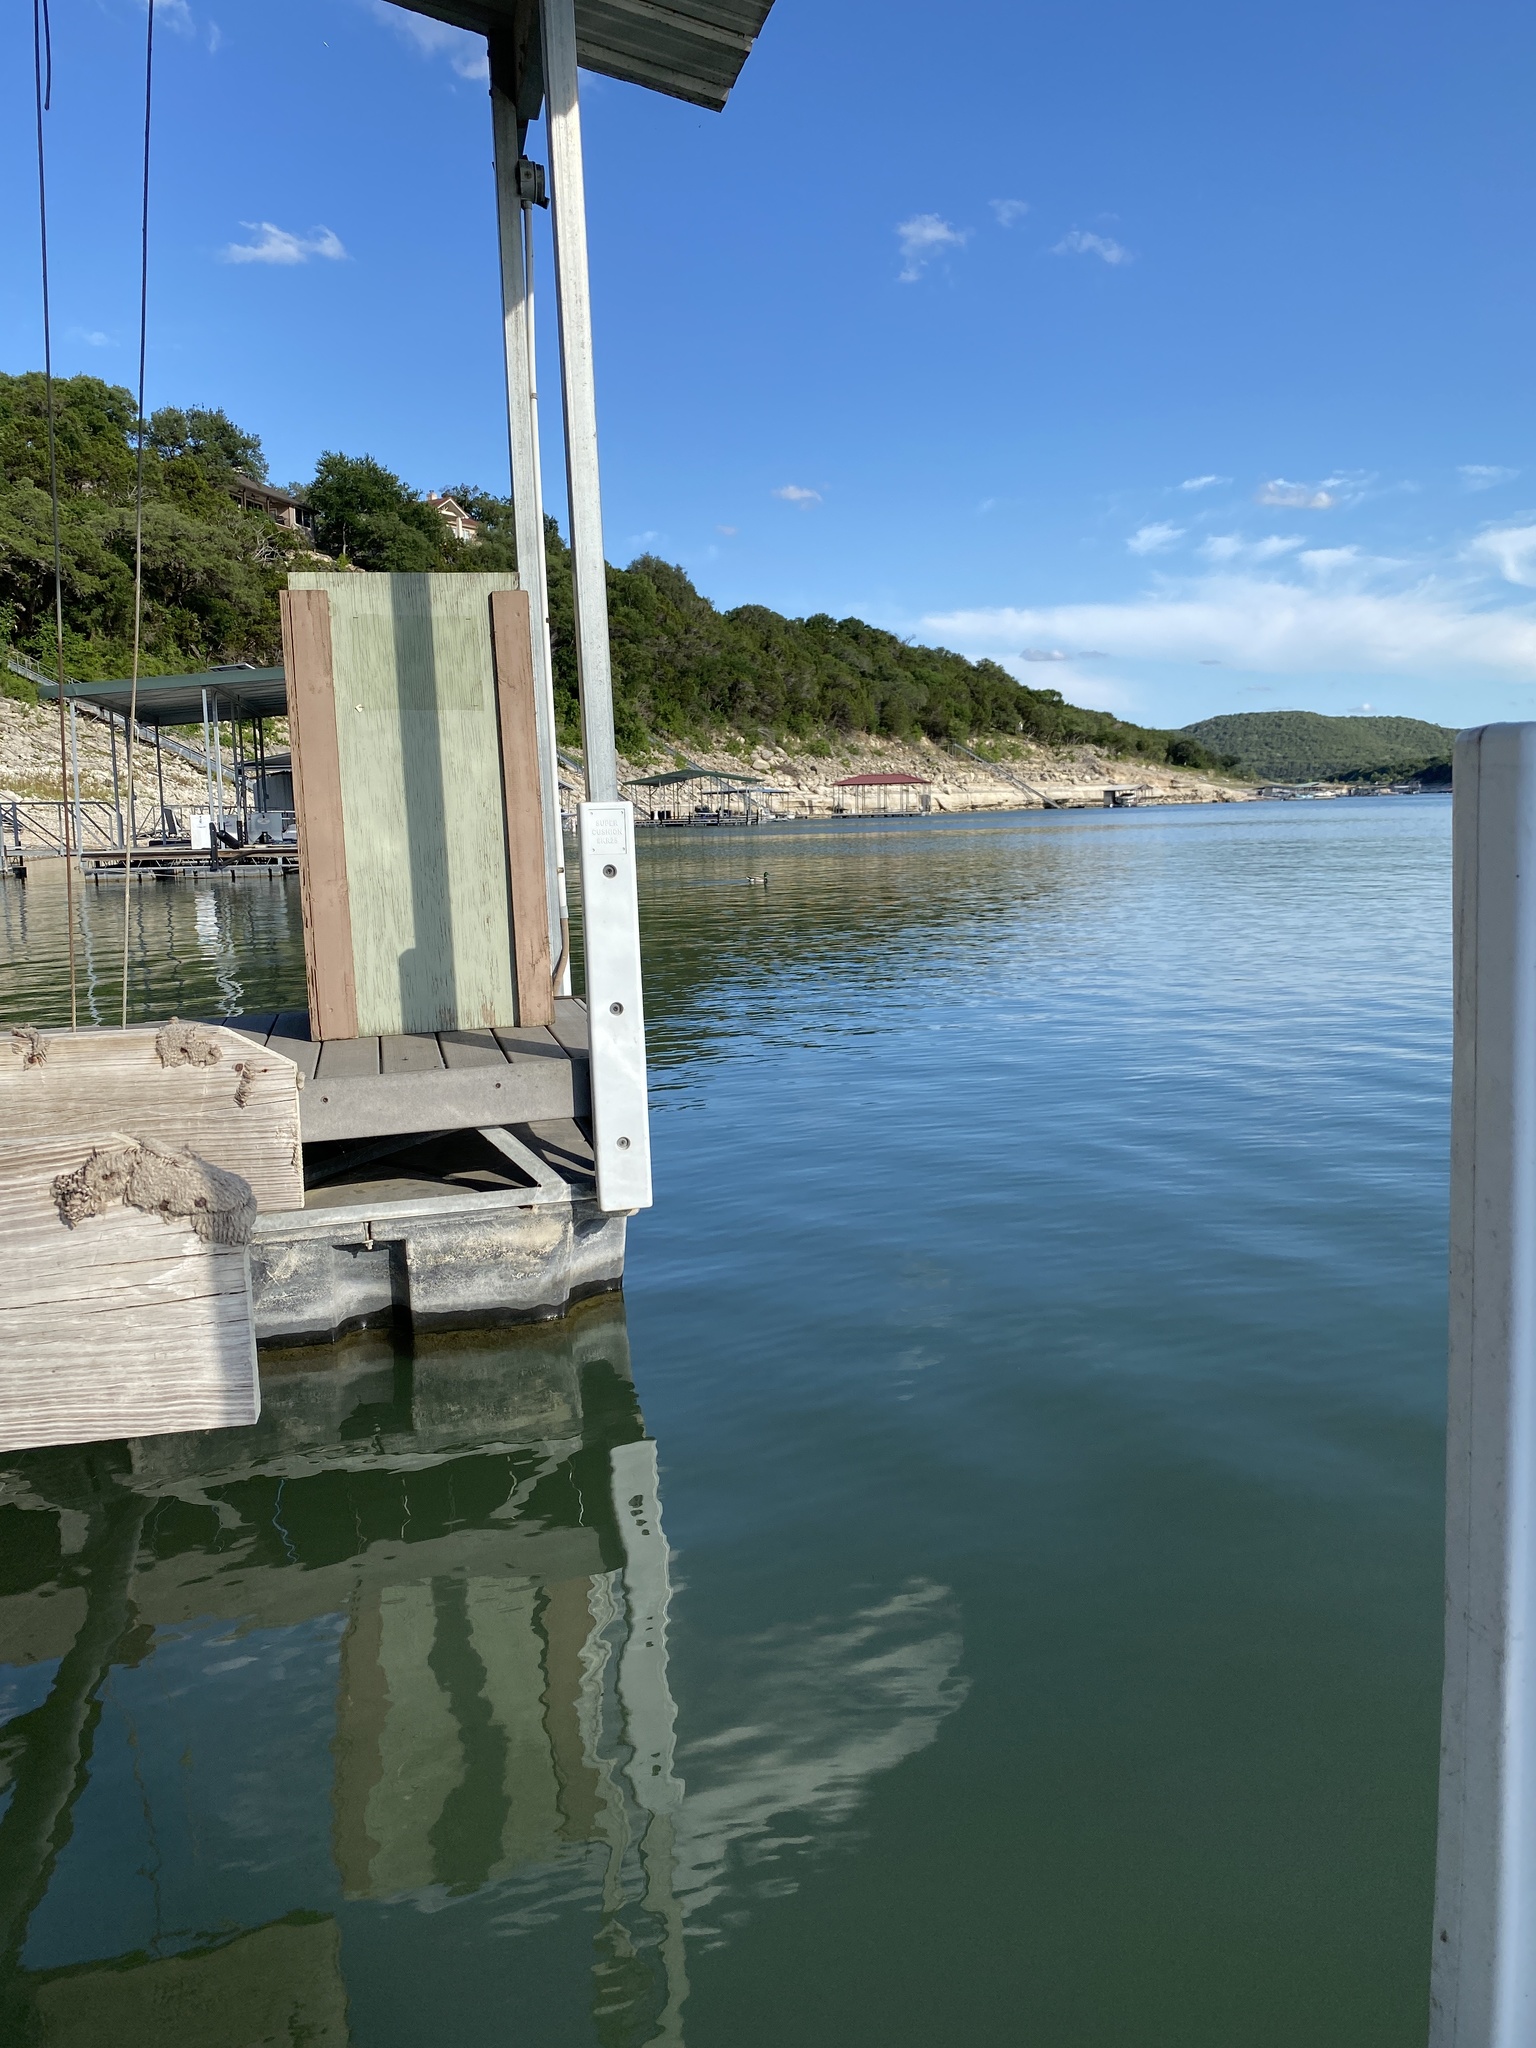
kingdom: Animalia
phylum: Chordata
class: Aves
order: Anseriformes
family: Anatidae
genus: Anas
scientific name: Anas platyrhynchos
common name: Mallard
